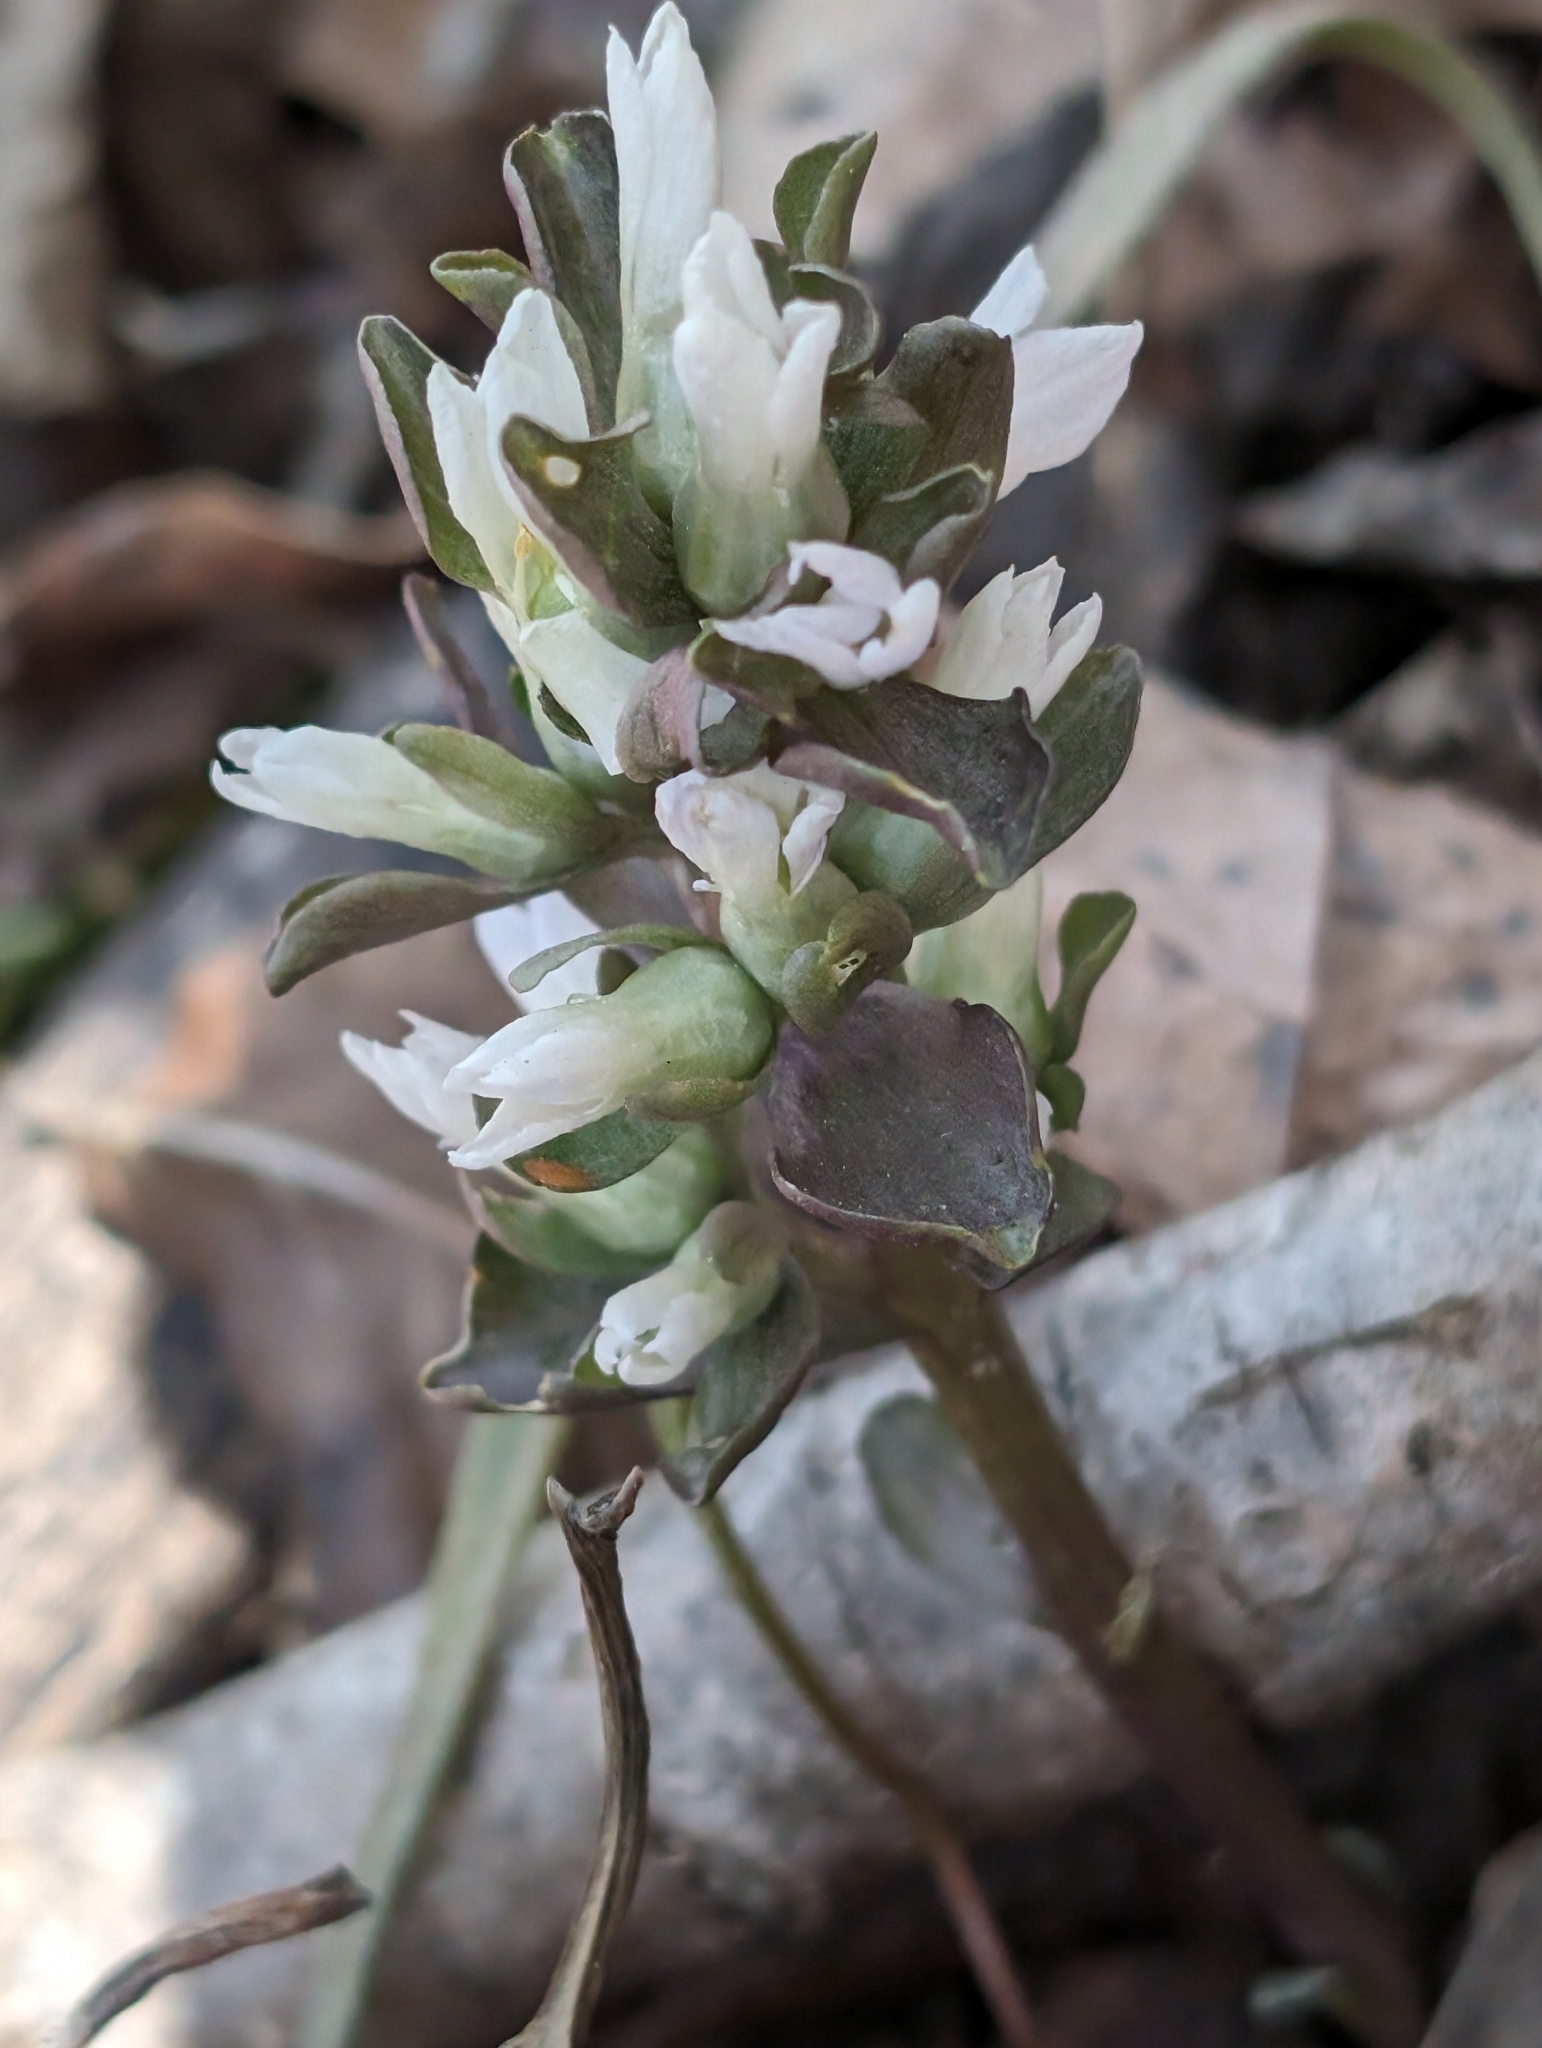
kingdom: Plantae
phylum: Tracheophyta
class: Magnoliopsida
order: Gentianales
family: Gentianaceae
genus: Obolaria
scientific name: Obolaria virginica
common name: Pennywort
